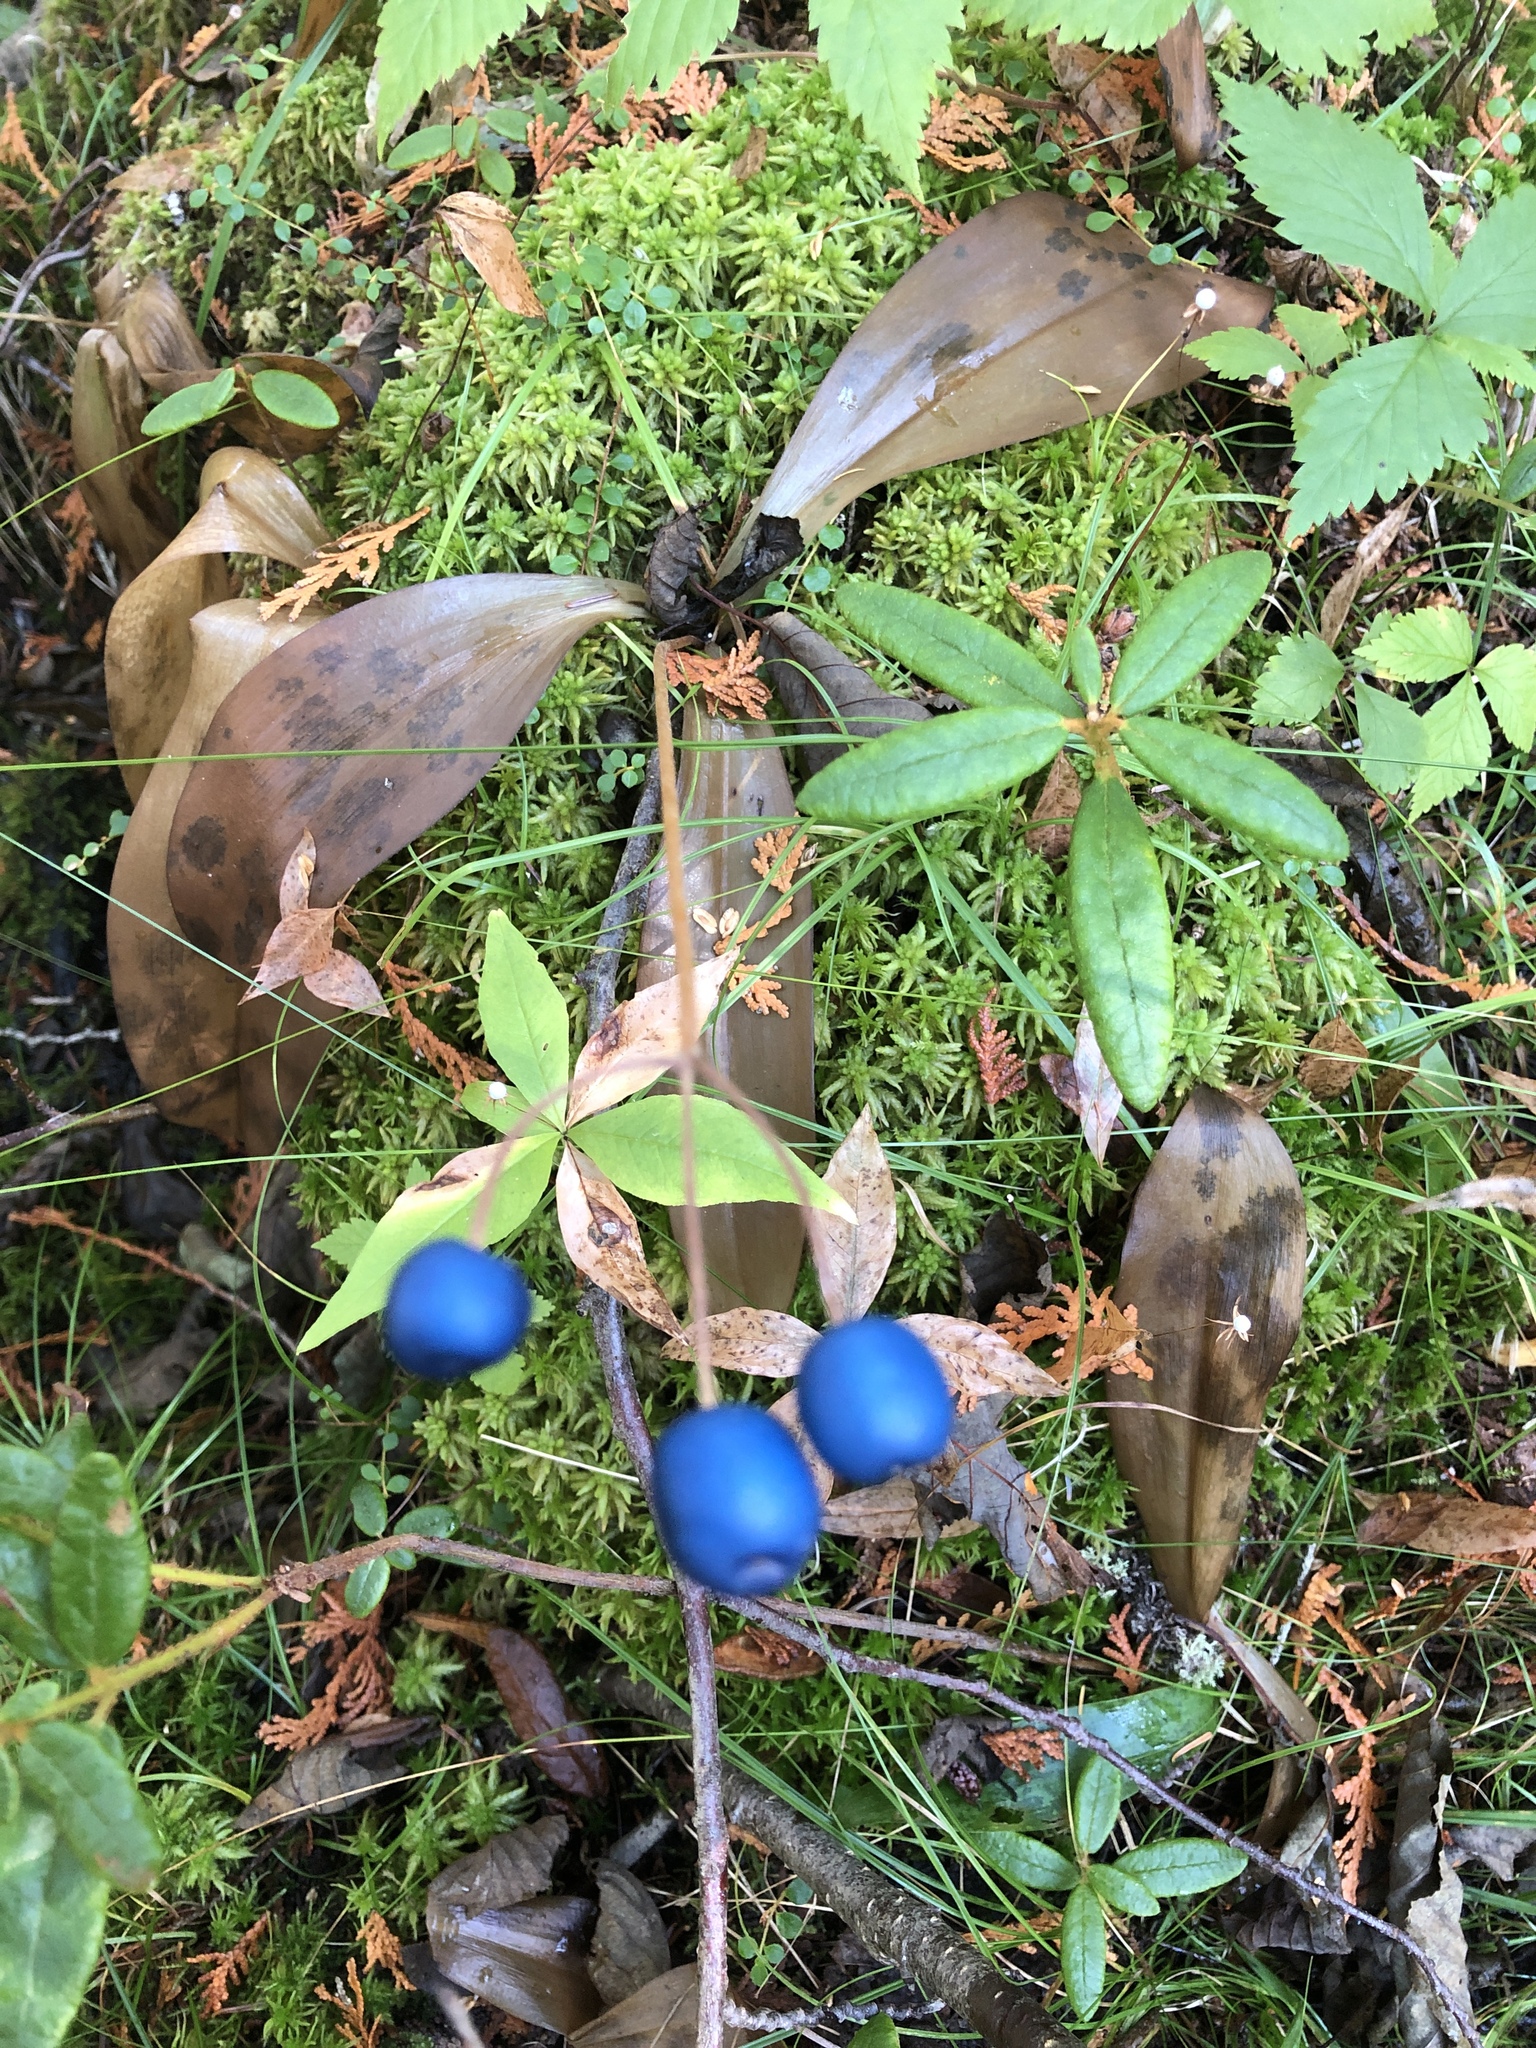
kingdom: Plantae
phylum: Tracheophyta
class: Liliopsida
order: Liliales
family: Liliaceae
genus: Clintonia
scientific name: Clintonia borealis
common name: Yellow clintonia
